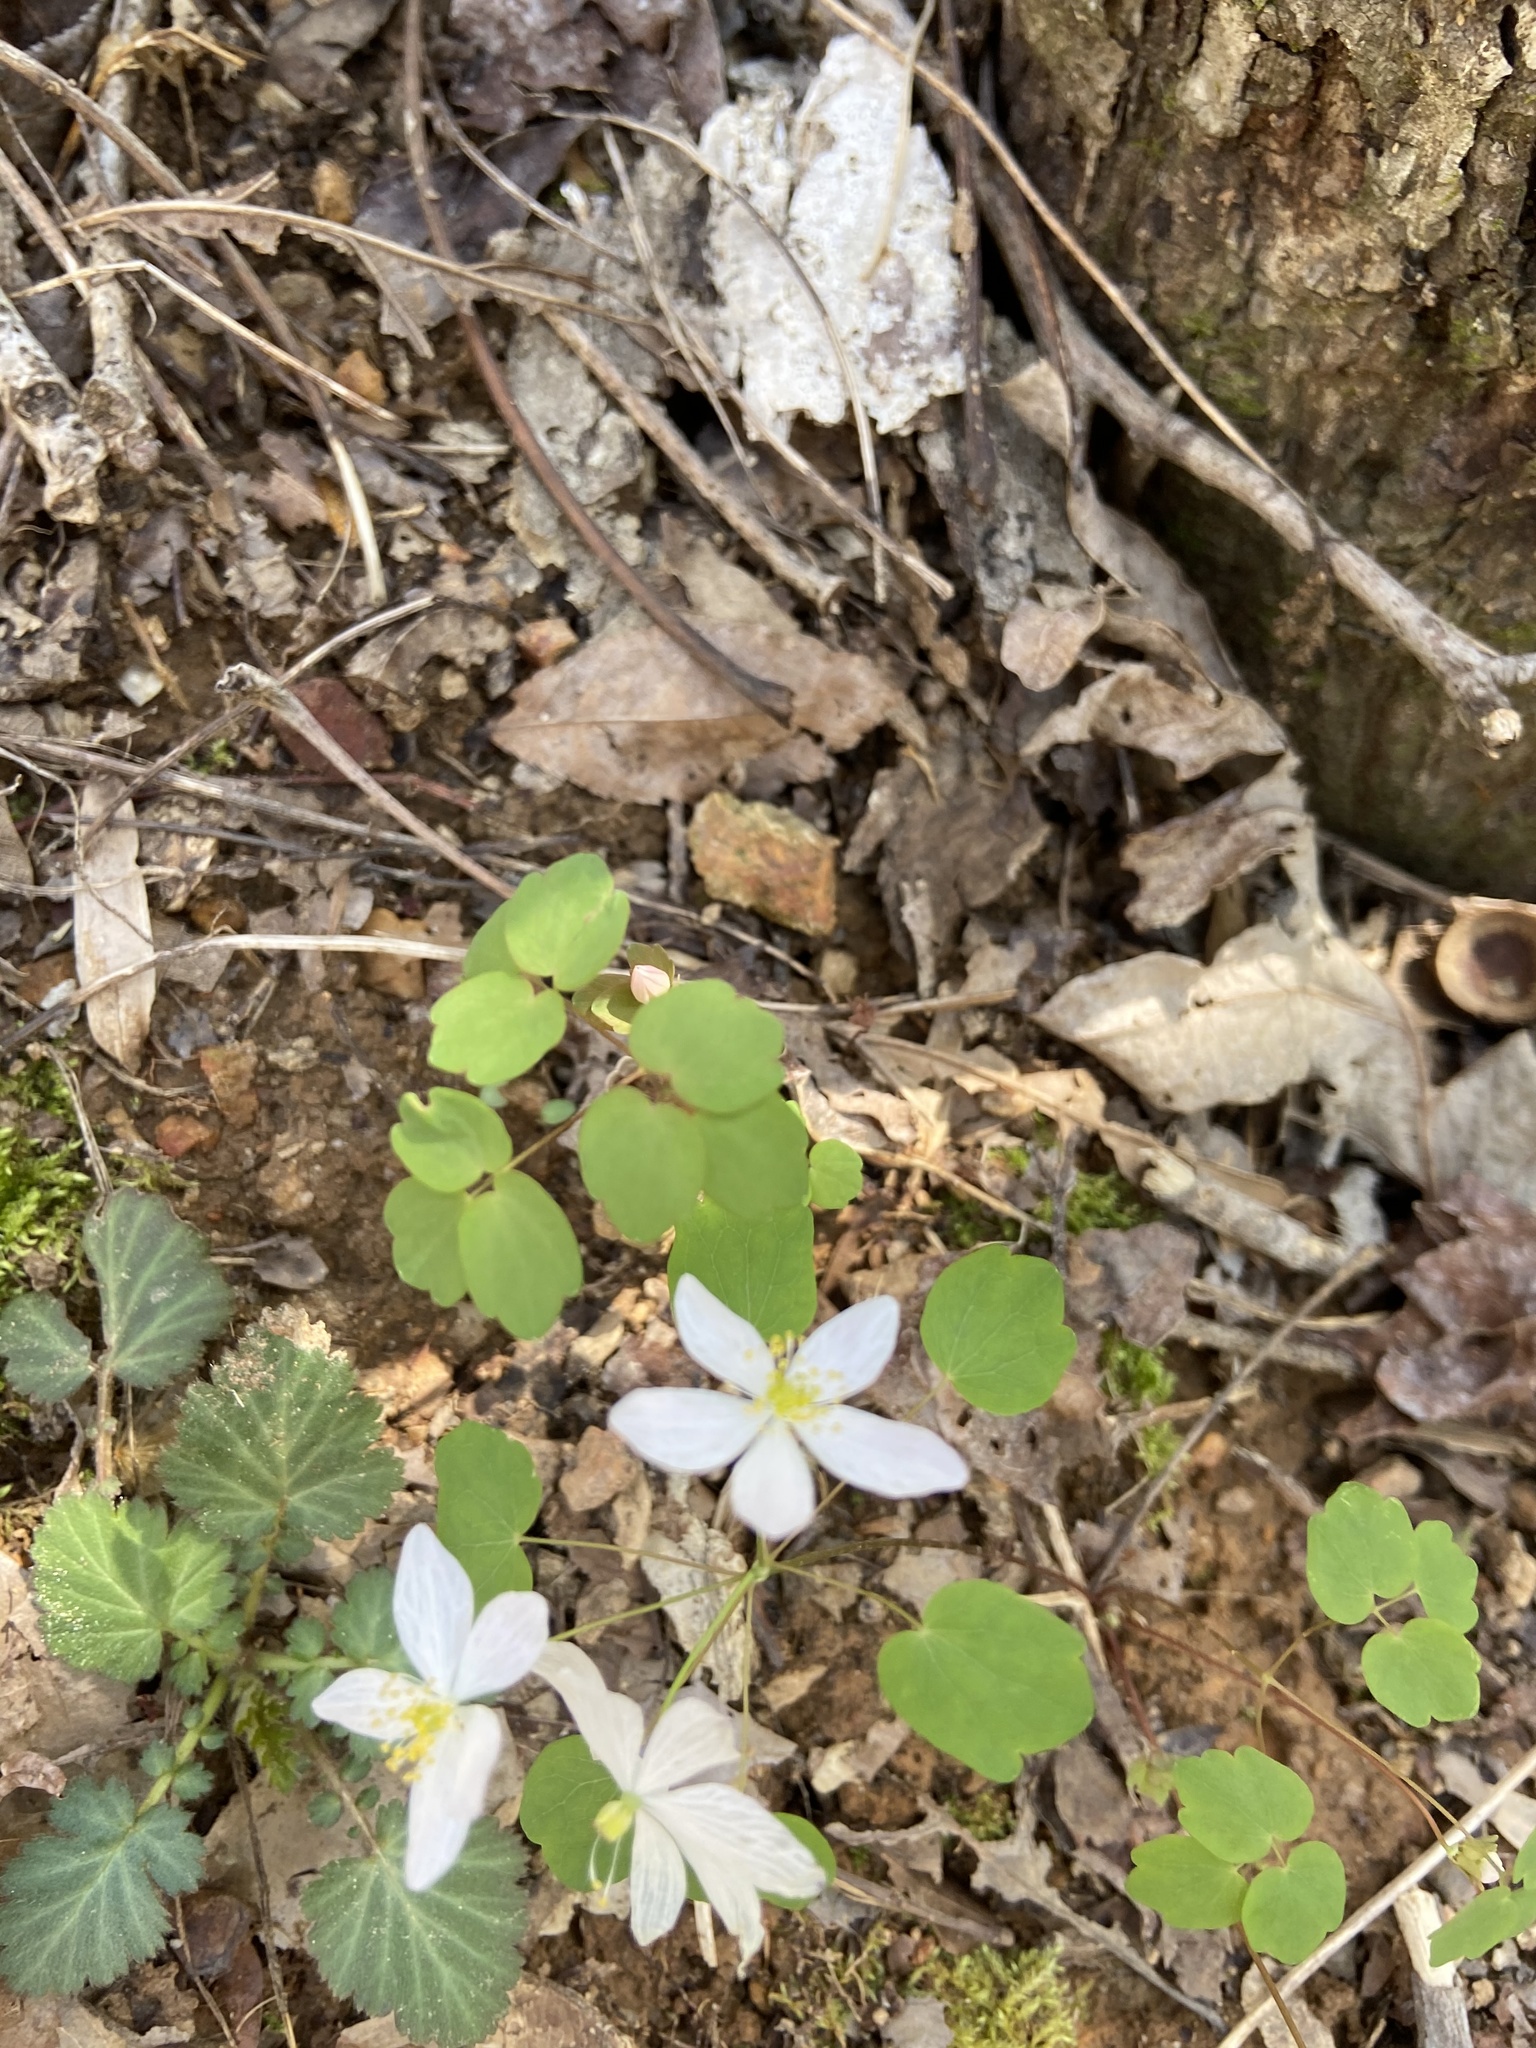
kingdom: Plantae
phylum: Tracheophyta
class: Magnoliopsida
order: Ranunculales
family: Ranunculaceae
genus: Thalictrum
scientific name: Thalictrum thalictroides
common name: Rue-anemone
